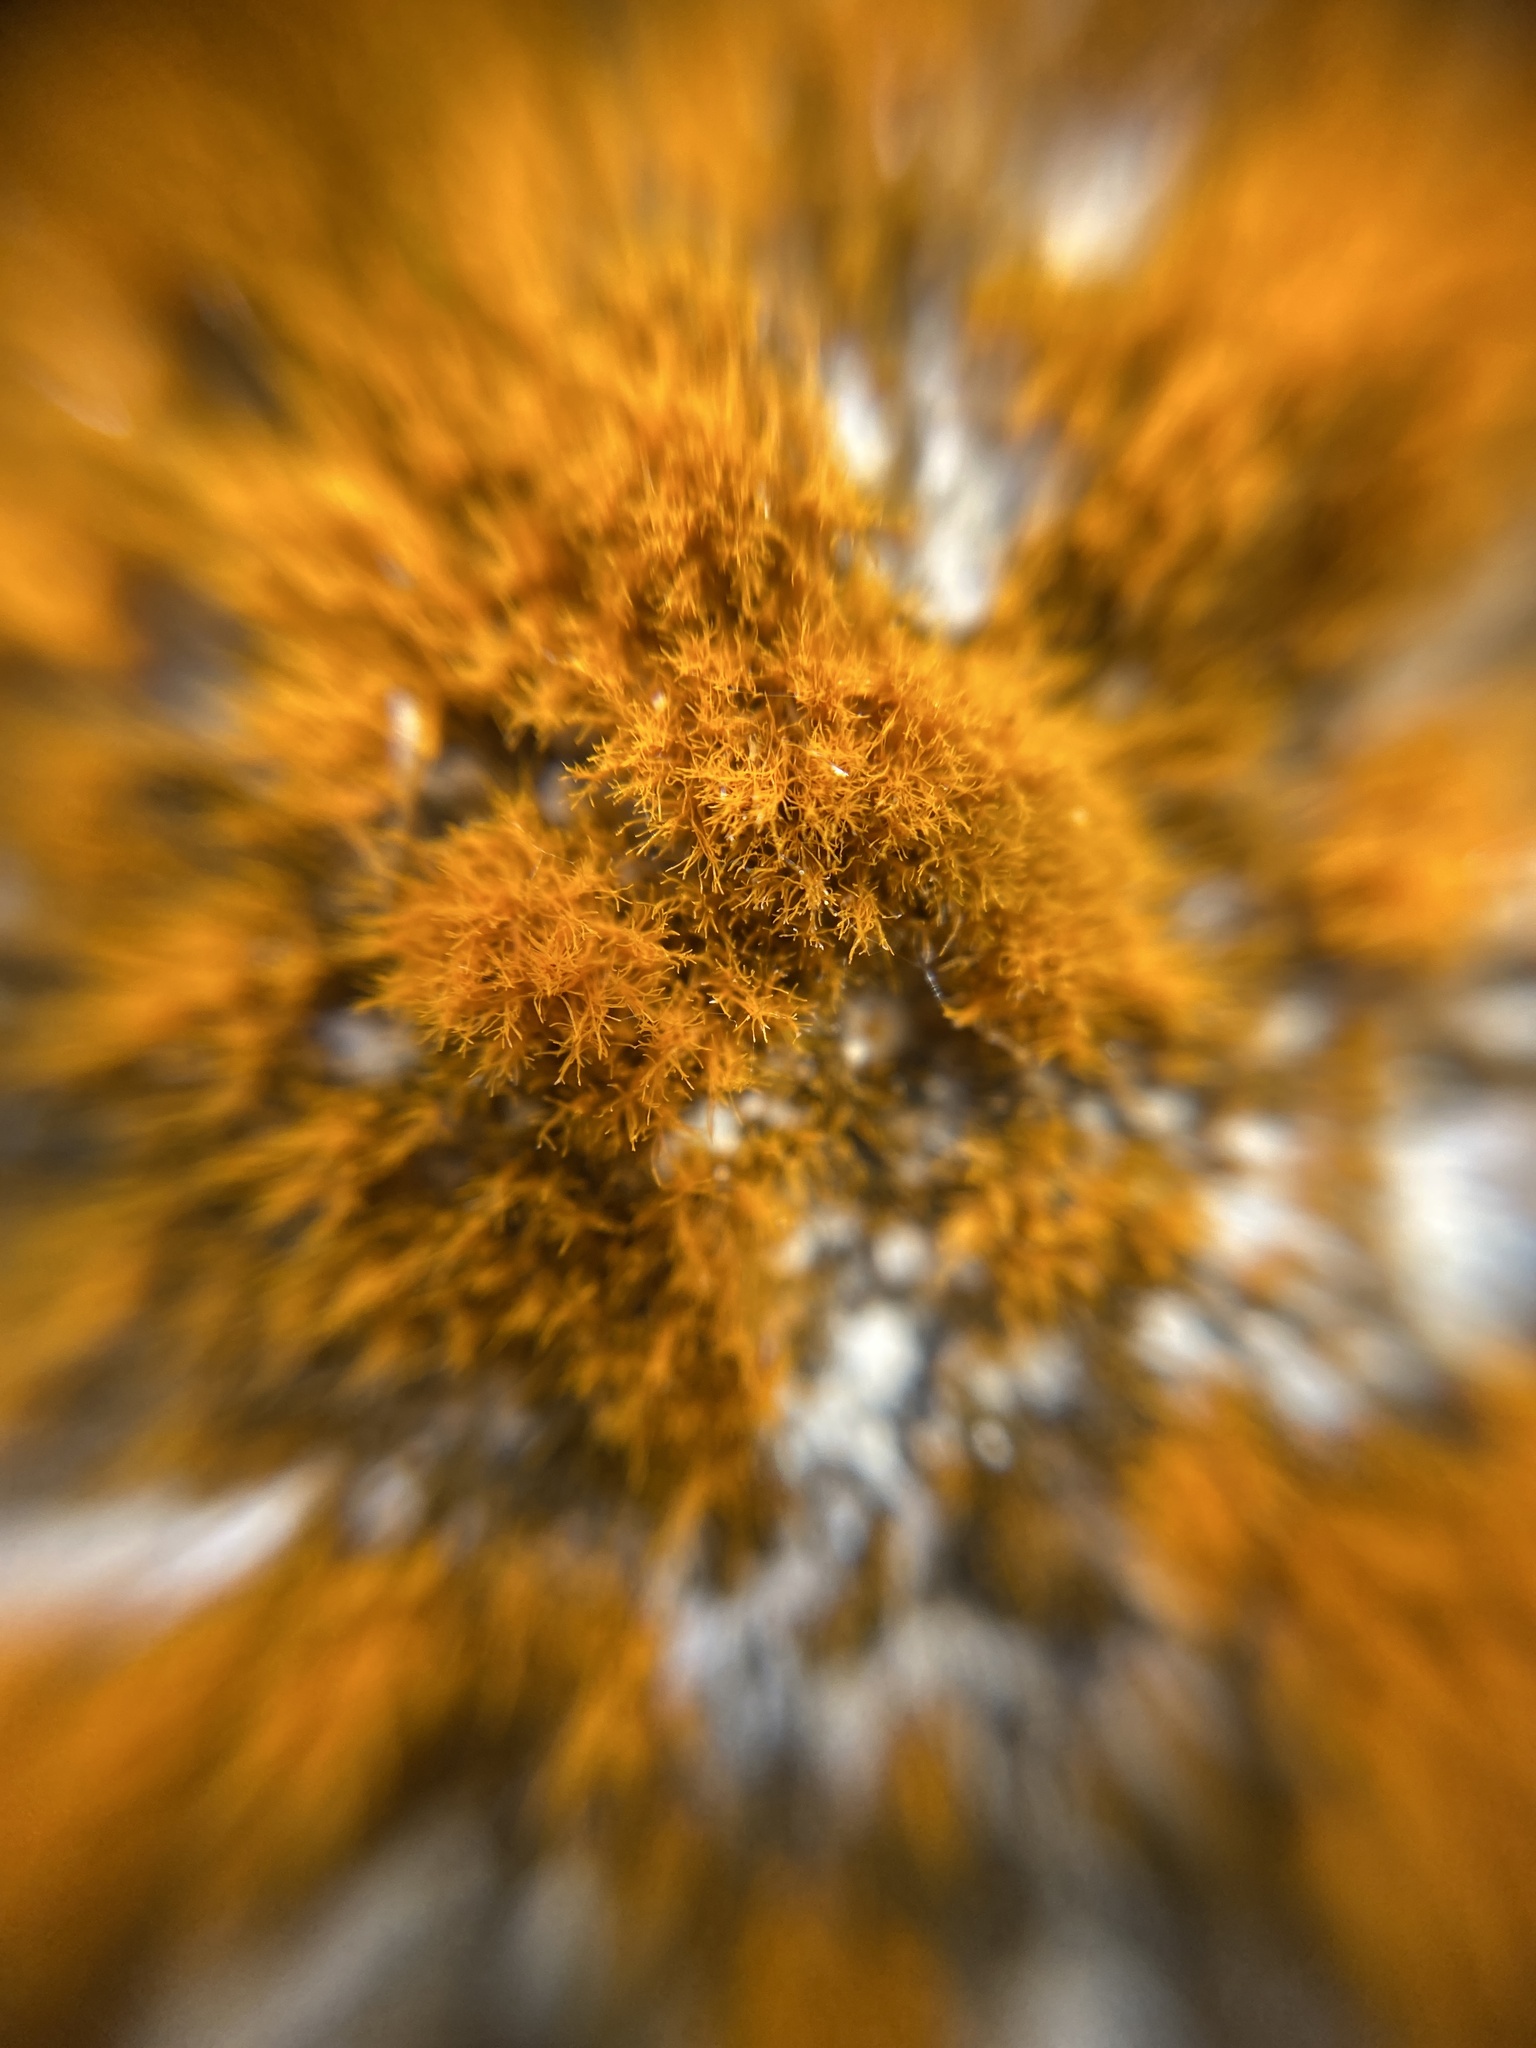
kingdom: Plantae
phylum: Chlorophyta
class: Ulvophyceae
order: Trentepohliales
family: Trentepohliaceae
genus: Trentepohlia
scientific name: Trentepohlia aurea
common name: Orange rock hair
